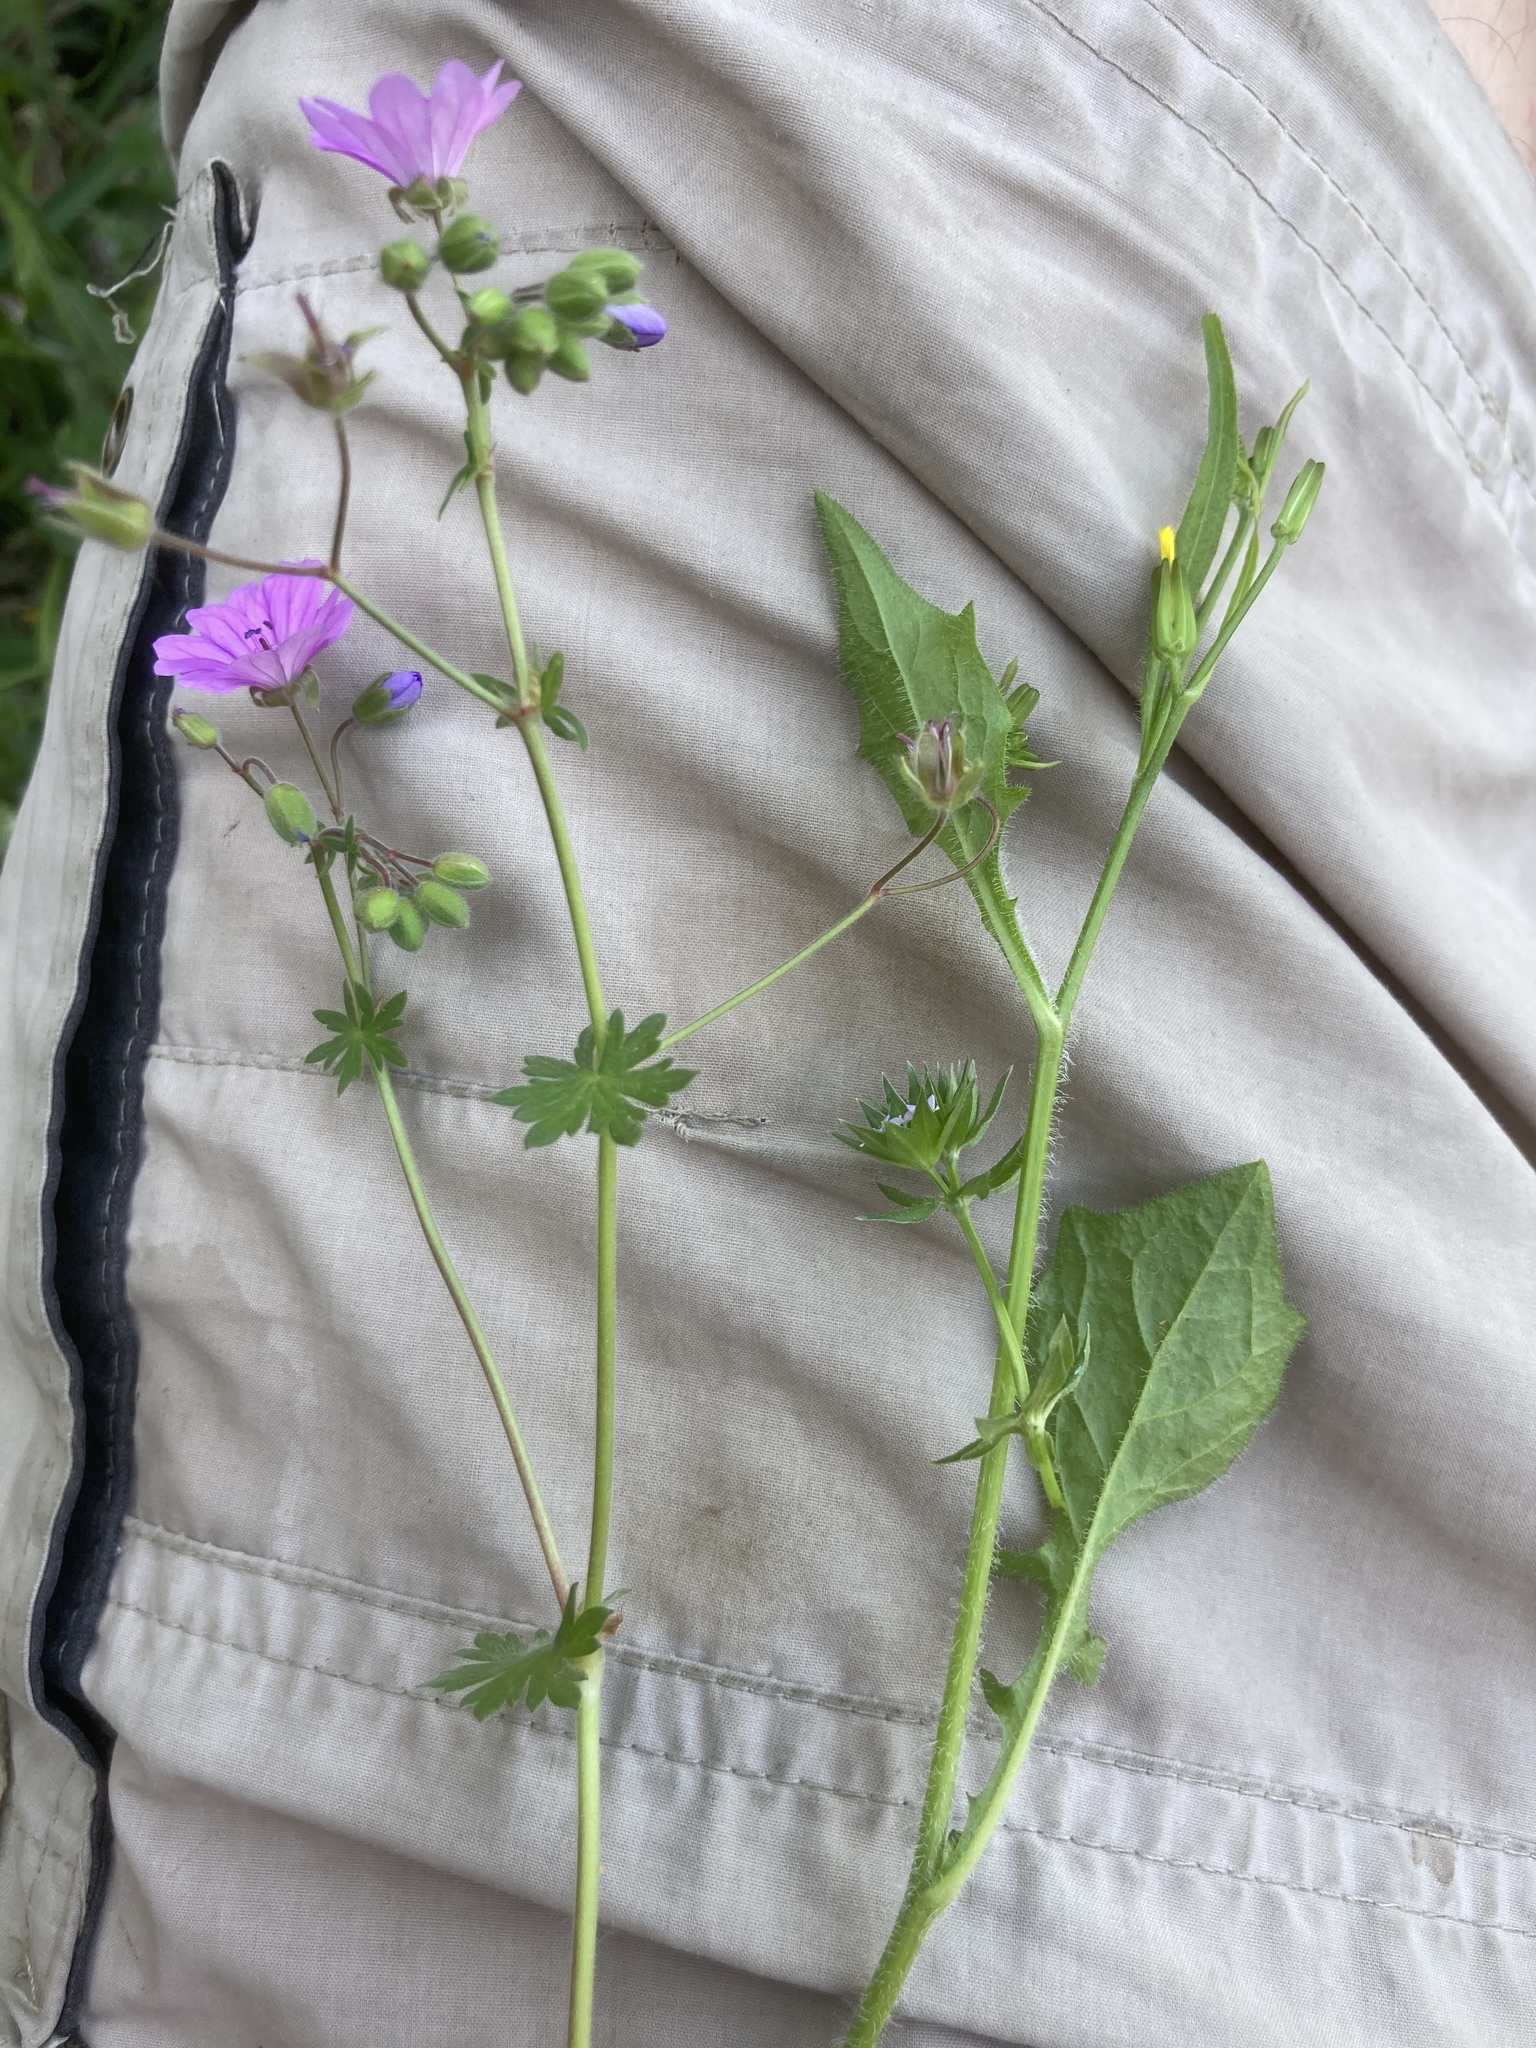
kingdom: Plantae
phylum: Tracheophyta
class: Magnoliopsida
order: Asterales
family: Asteraceae
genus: Rhagadiolus
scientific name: Rhagadiolus edulis
